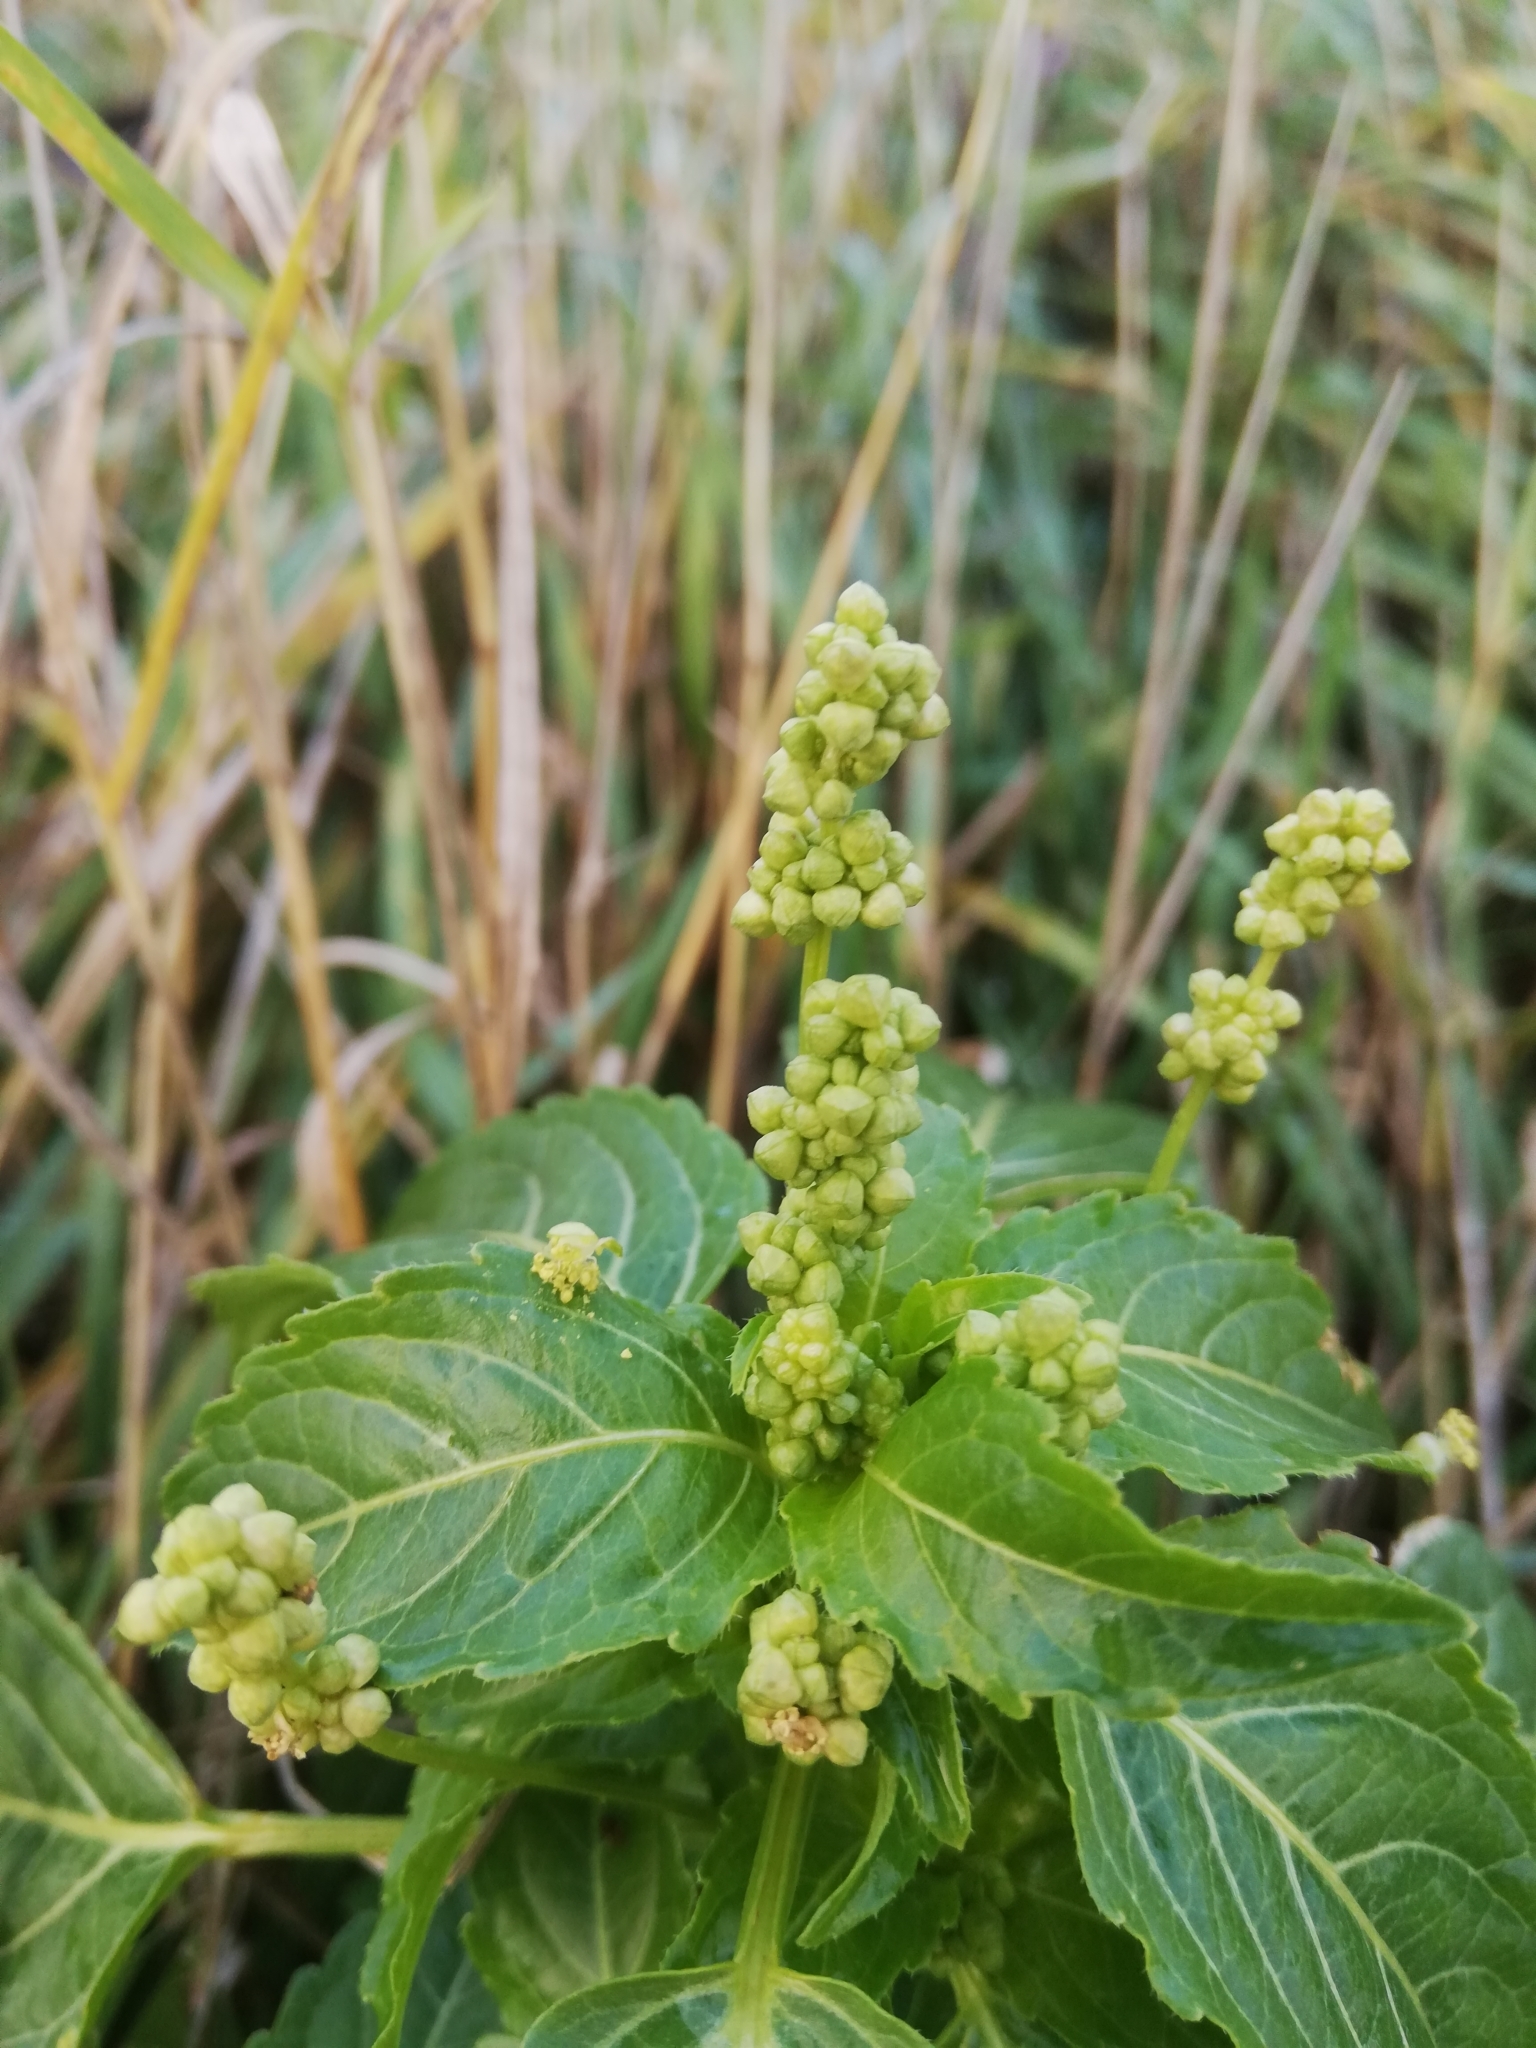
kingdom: Plantae
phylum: Tracheophyta
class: Magnoliopsida
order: Malpighiales
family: Euphorbiaceae
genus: Mercurialis
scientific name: Mercurialis annua
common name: Annual mercury
